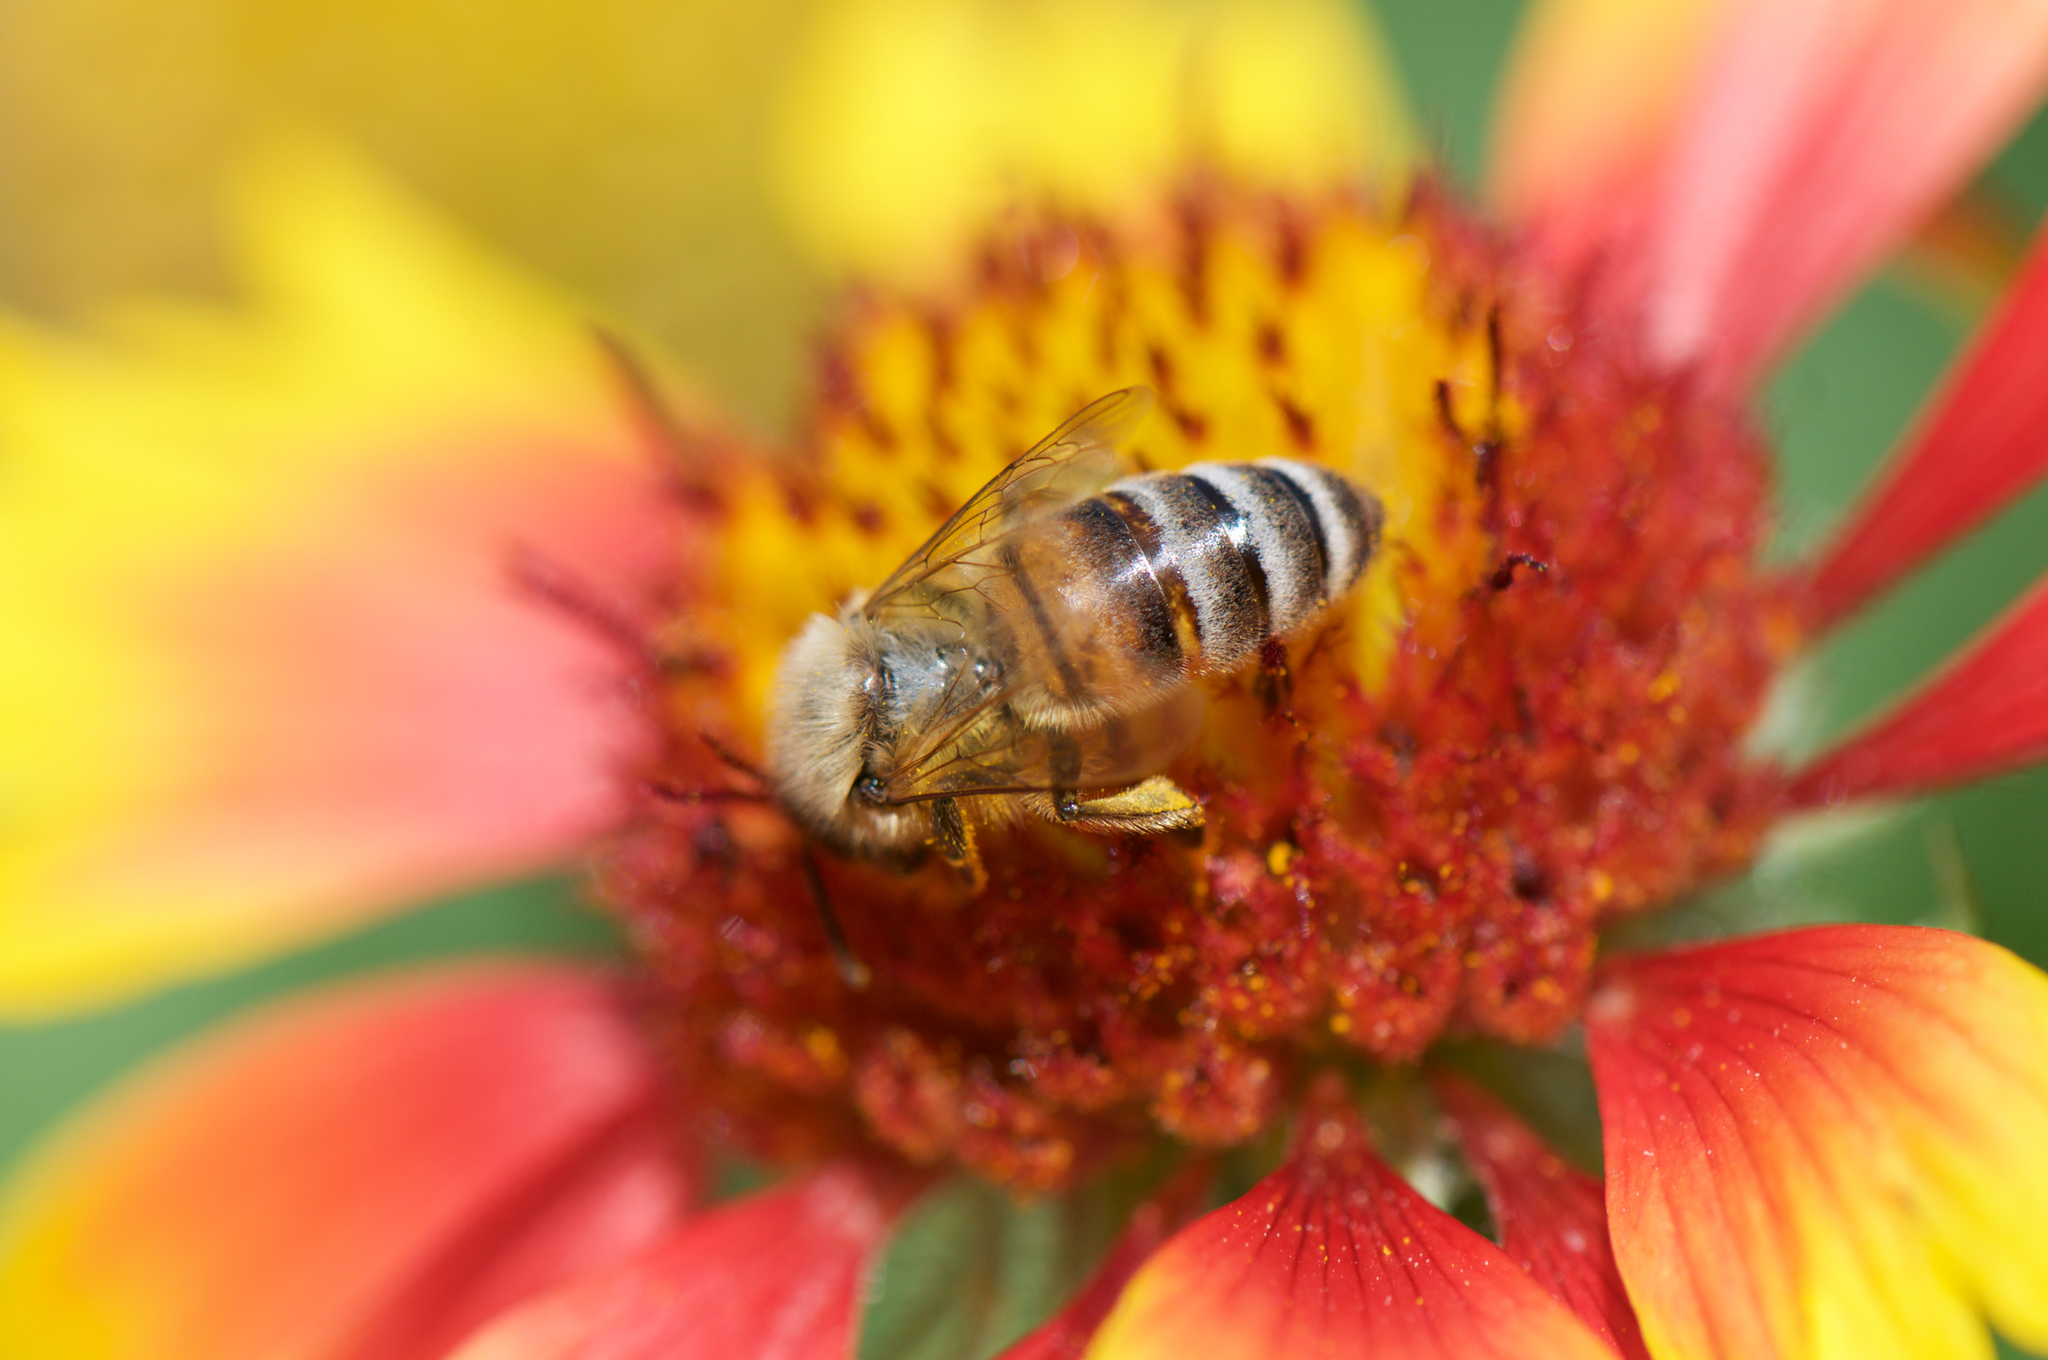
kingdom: Animalia
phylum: Arthropoda
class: Insecta
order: Hymenoptera
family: Apidae
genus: Apis
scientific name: Apis mellifera
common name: Honey bee
